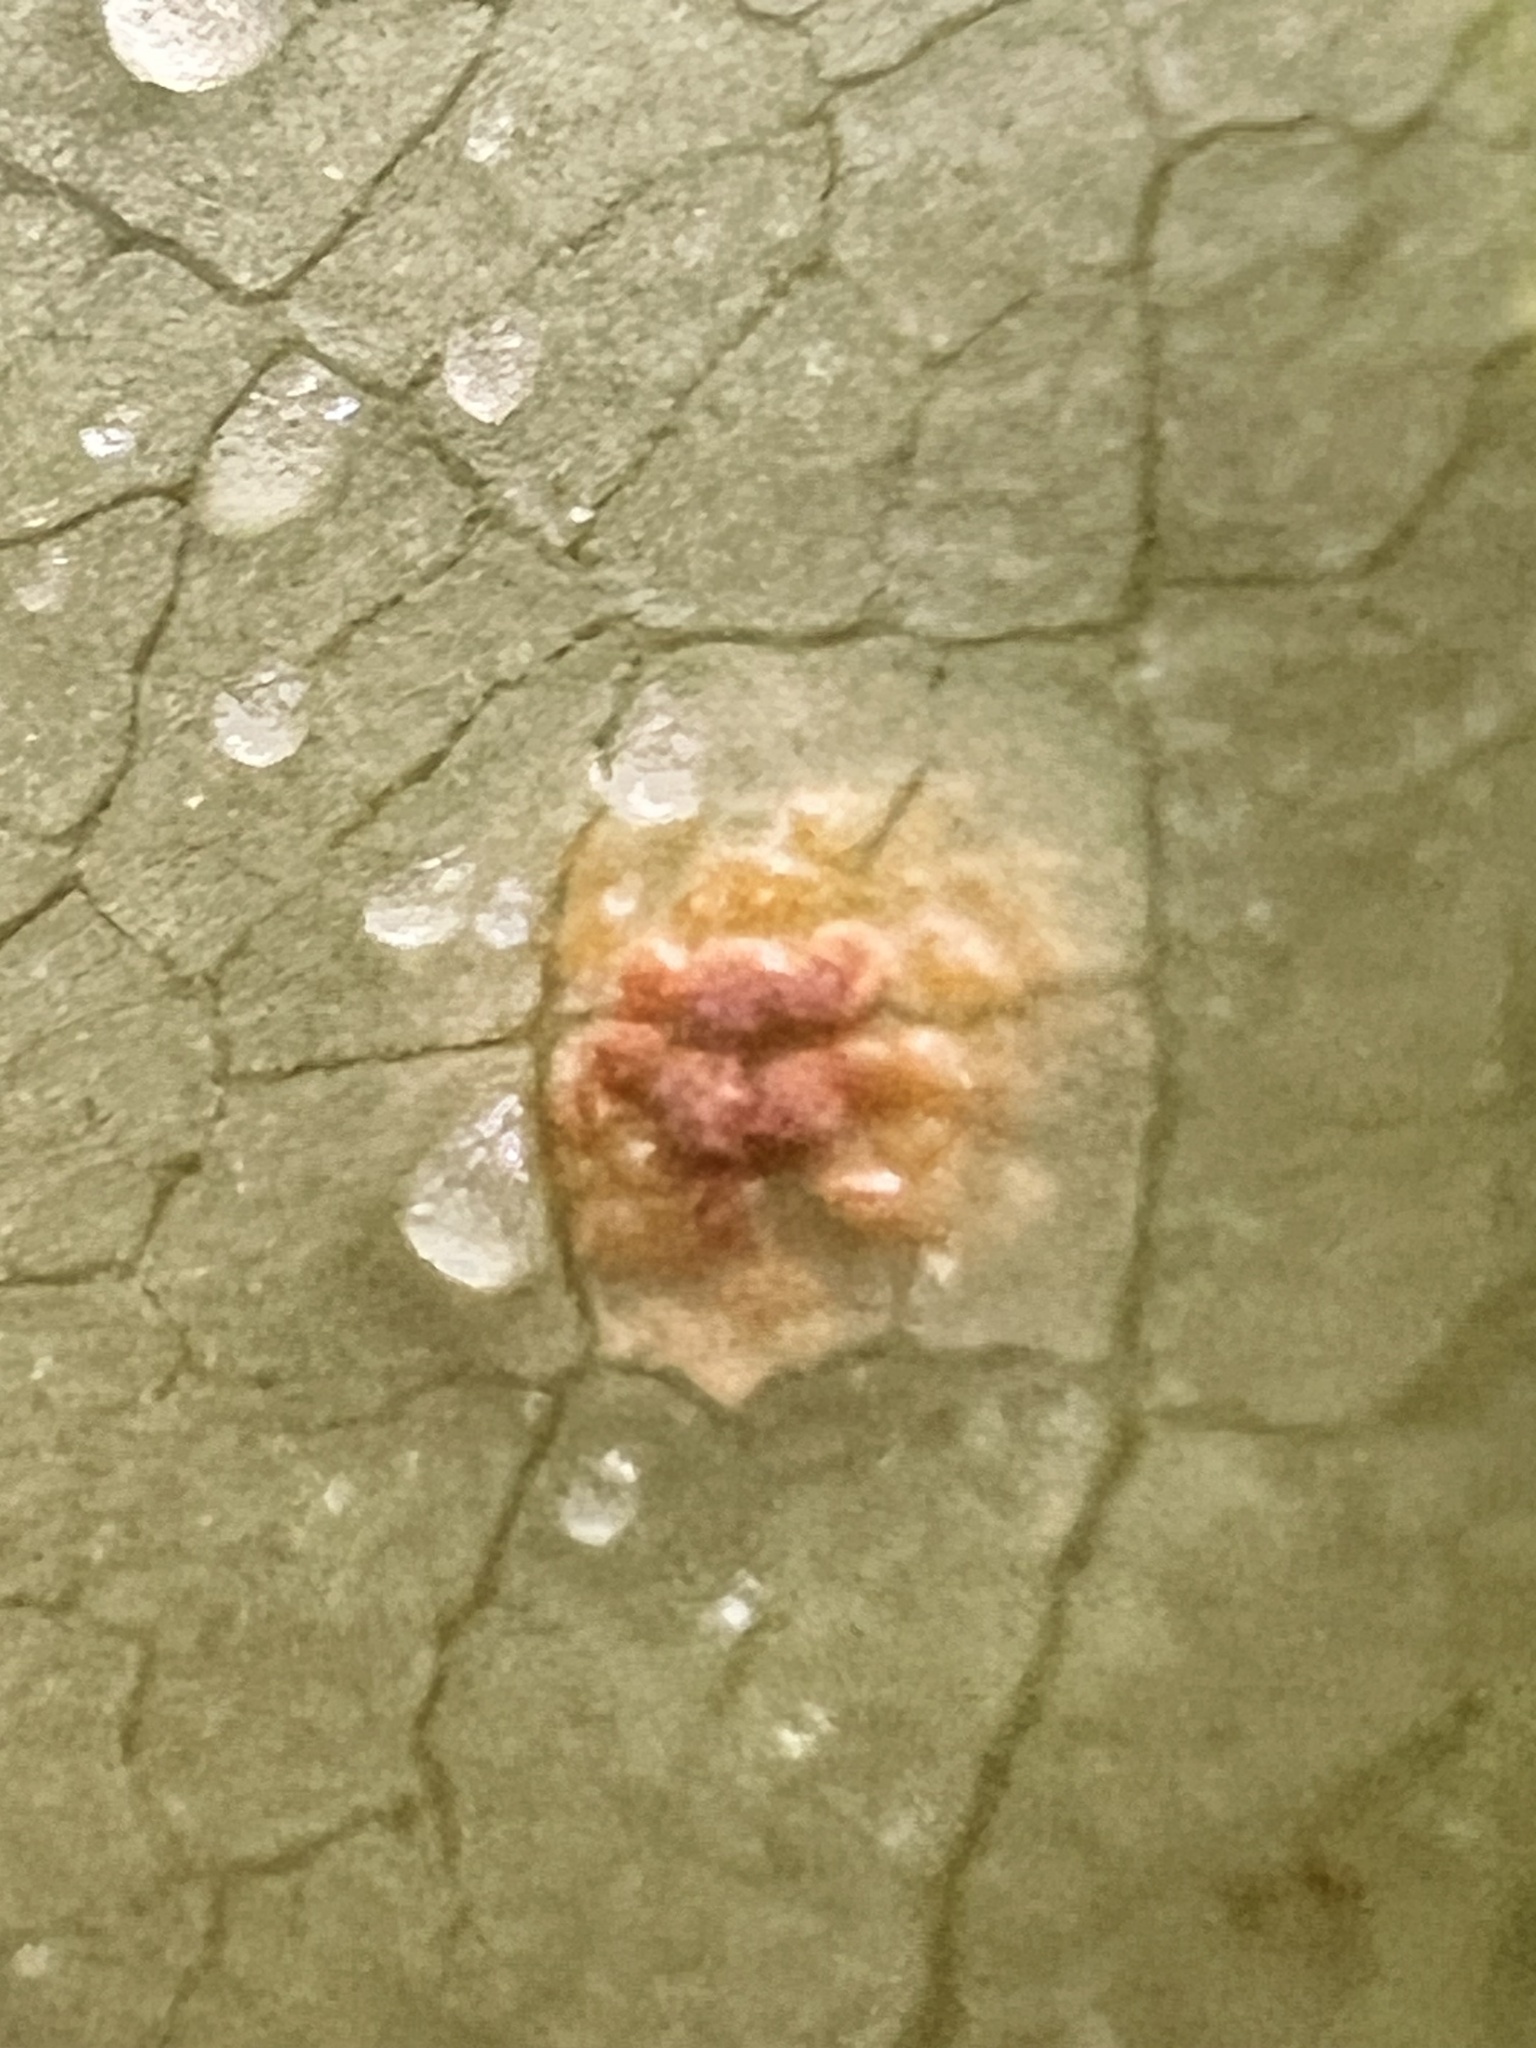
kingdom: Fungi
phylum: Basidiomycota
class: Pucciniomycetes
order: Pucciniales
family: Pucciniaceae
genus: Puccinia
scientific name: Puccinia coprosmae
